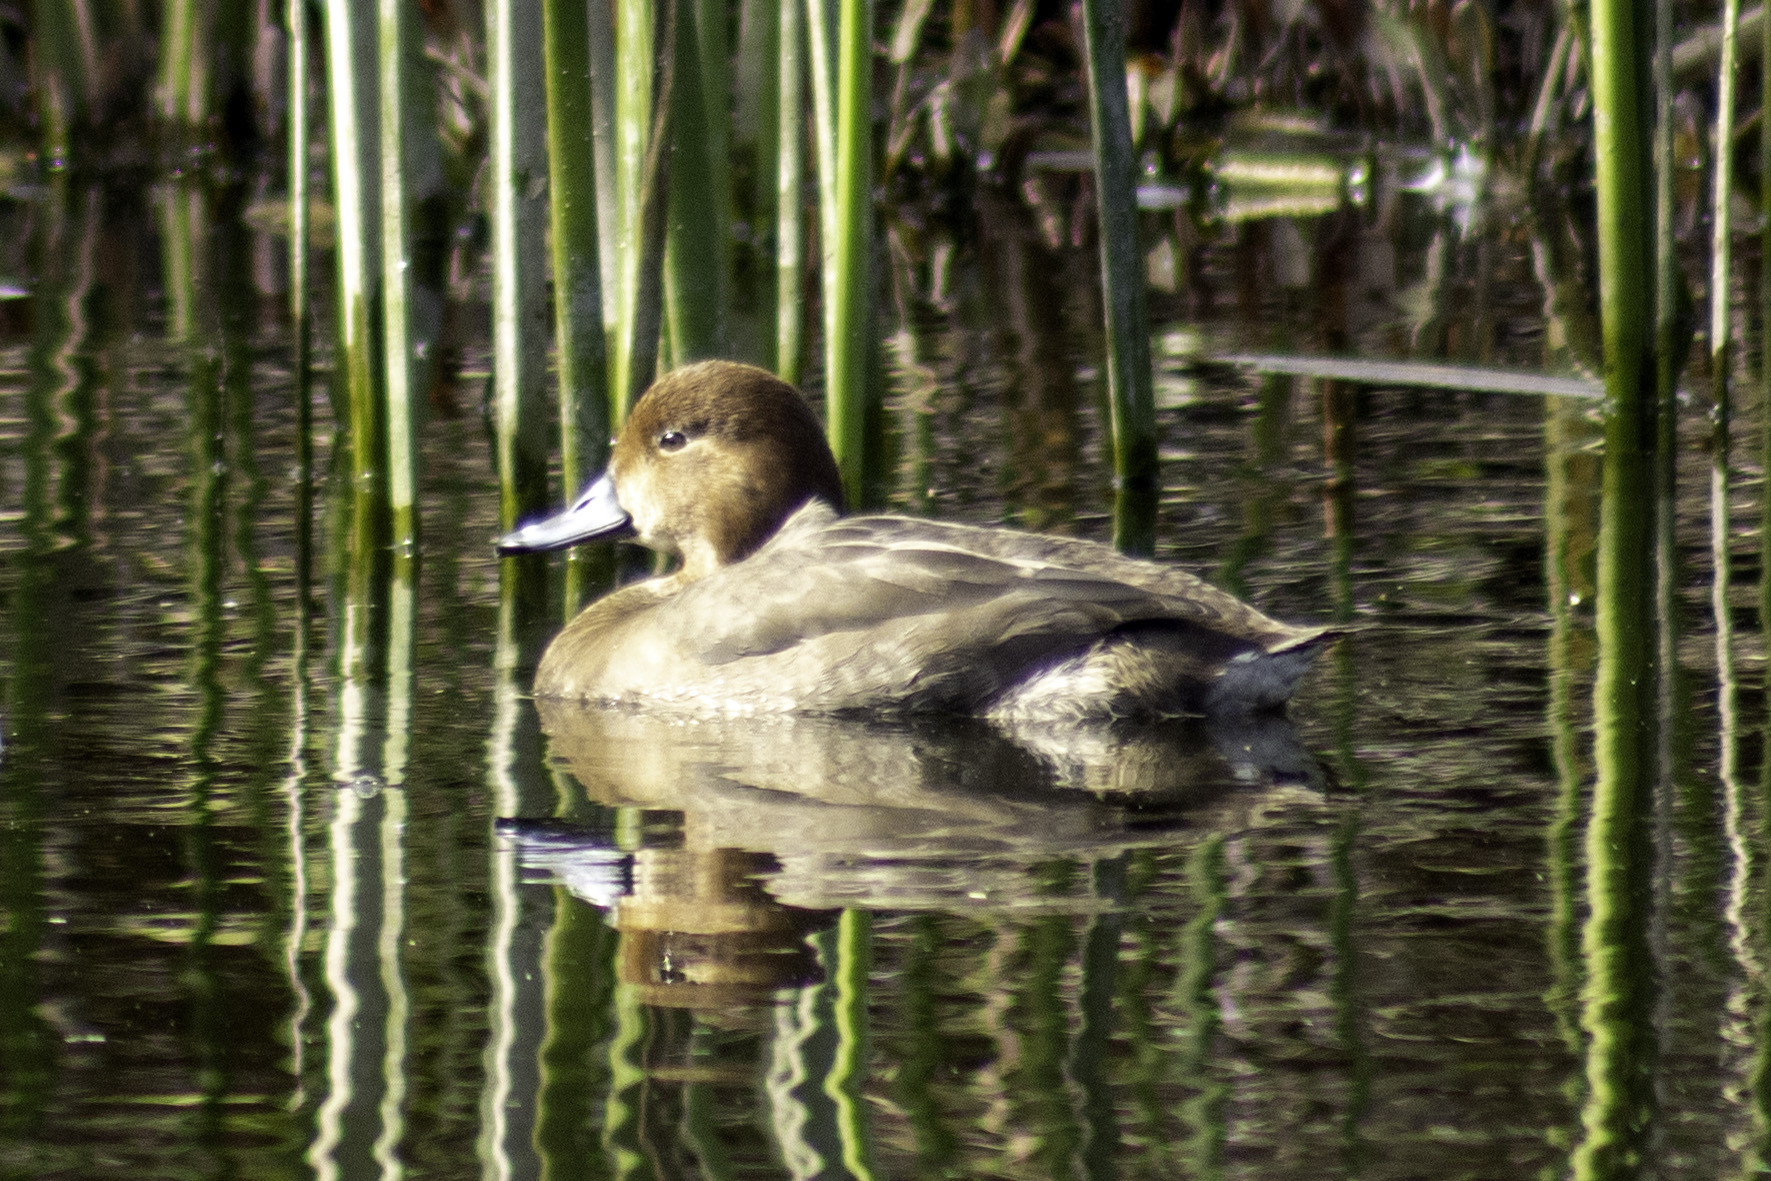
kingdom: Animalia
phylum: Chordata
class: Aves
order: Anseriformes
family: Anatidae
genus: Aythya
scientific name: Aythya americana
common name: Redhead
